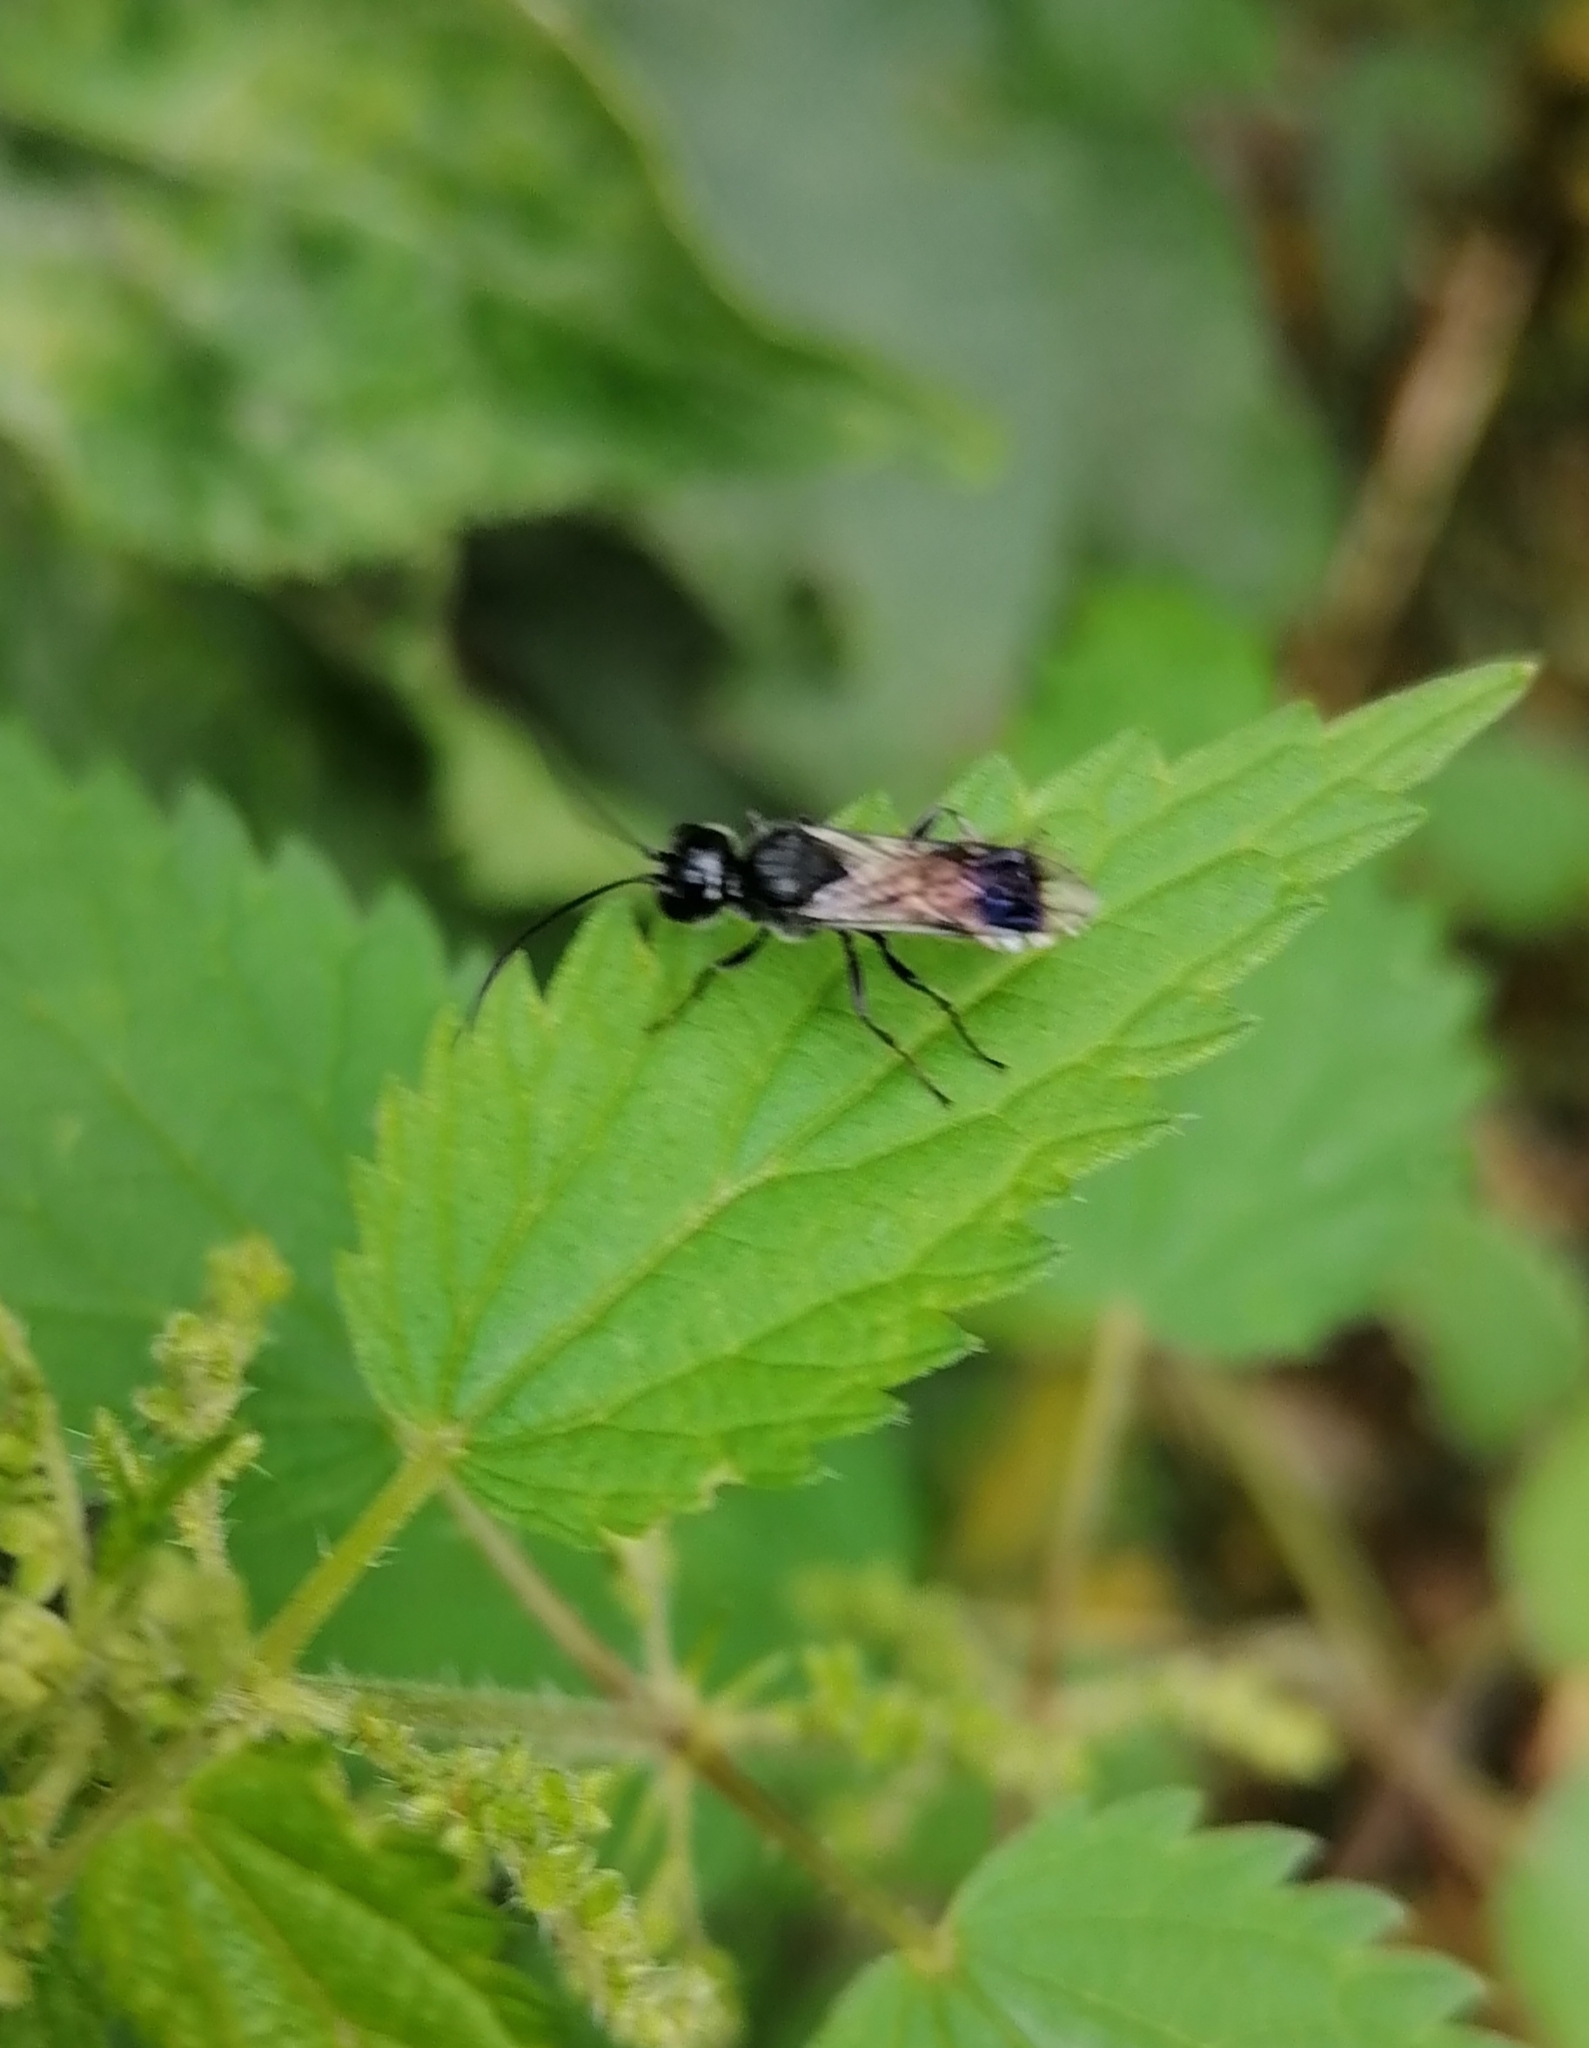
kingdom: Animalia
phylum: Arthropoda
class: Insecta
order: Hymenoptera
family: Trigonalidae
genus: Pseudogonalos
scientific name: Pseudogonalos hahnii
